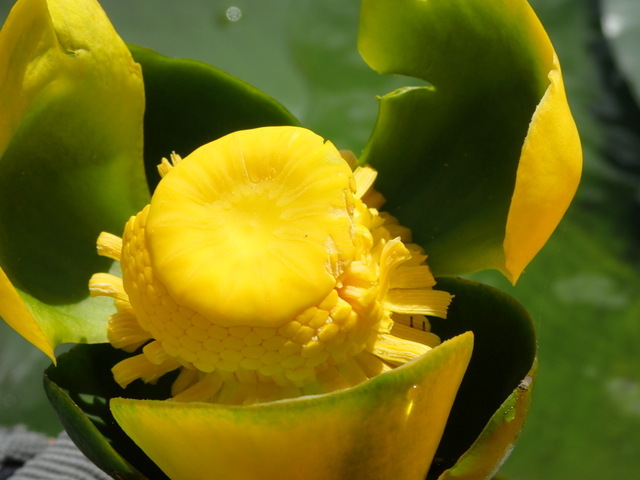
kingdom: Plantae
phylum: Tracheophyta
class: Magnoliopsida
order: Nymphaeales
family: Nymphaeaceae
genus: Nuphar
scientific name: Nuphar advena
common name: Spatter-dock
